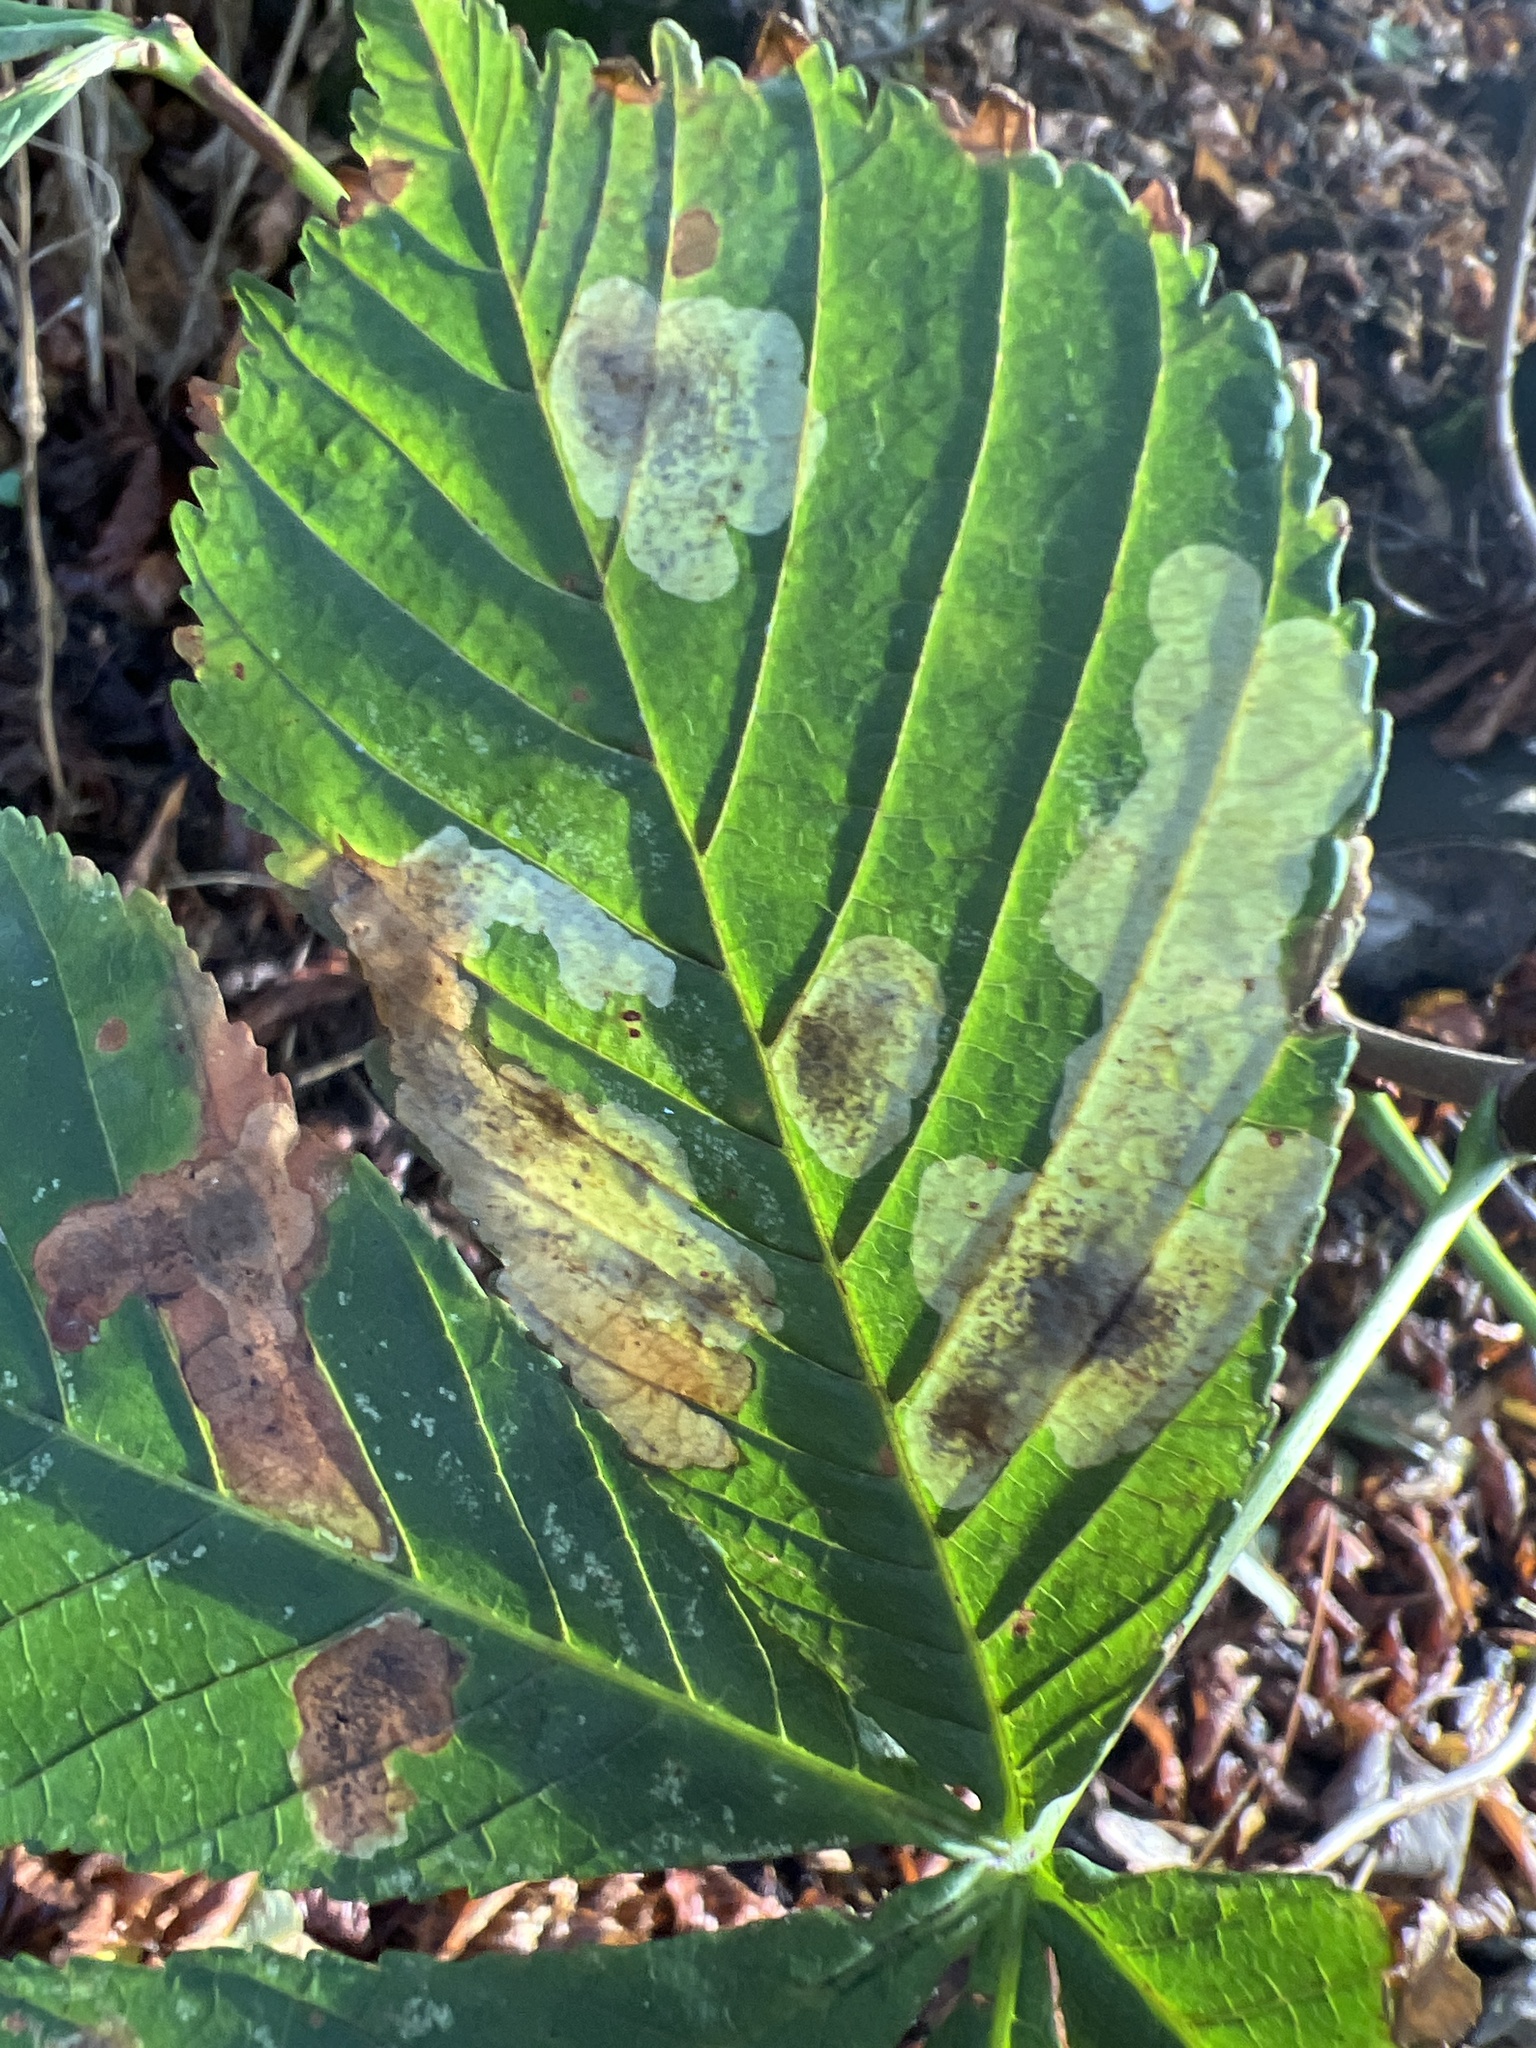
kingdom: Animalia
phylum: Arthropoda
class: Insecta
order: Lepidoptera
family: Gracillariidae
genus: Cameraria
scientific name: Cameraria ohridella
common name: Horse-chestnut leaf-miner
